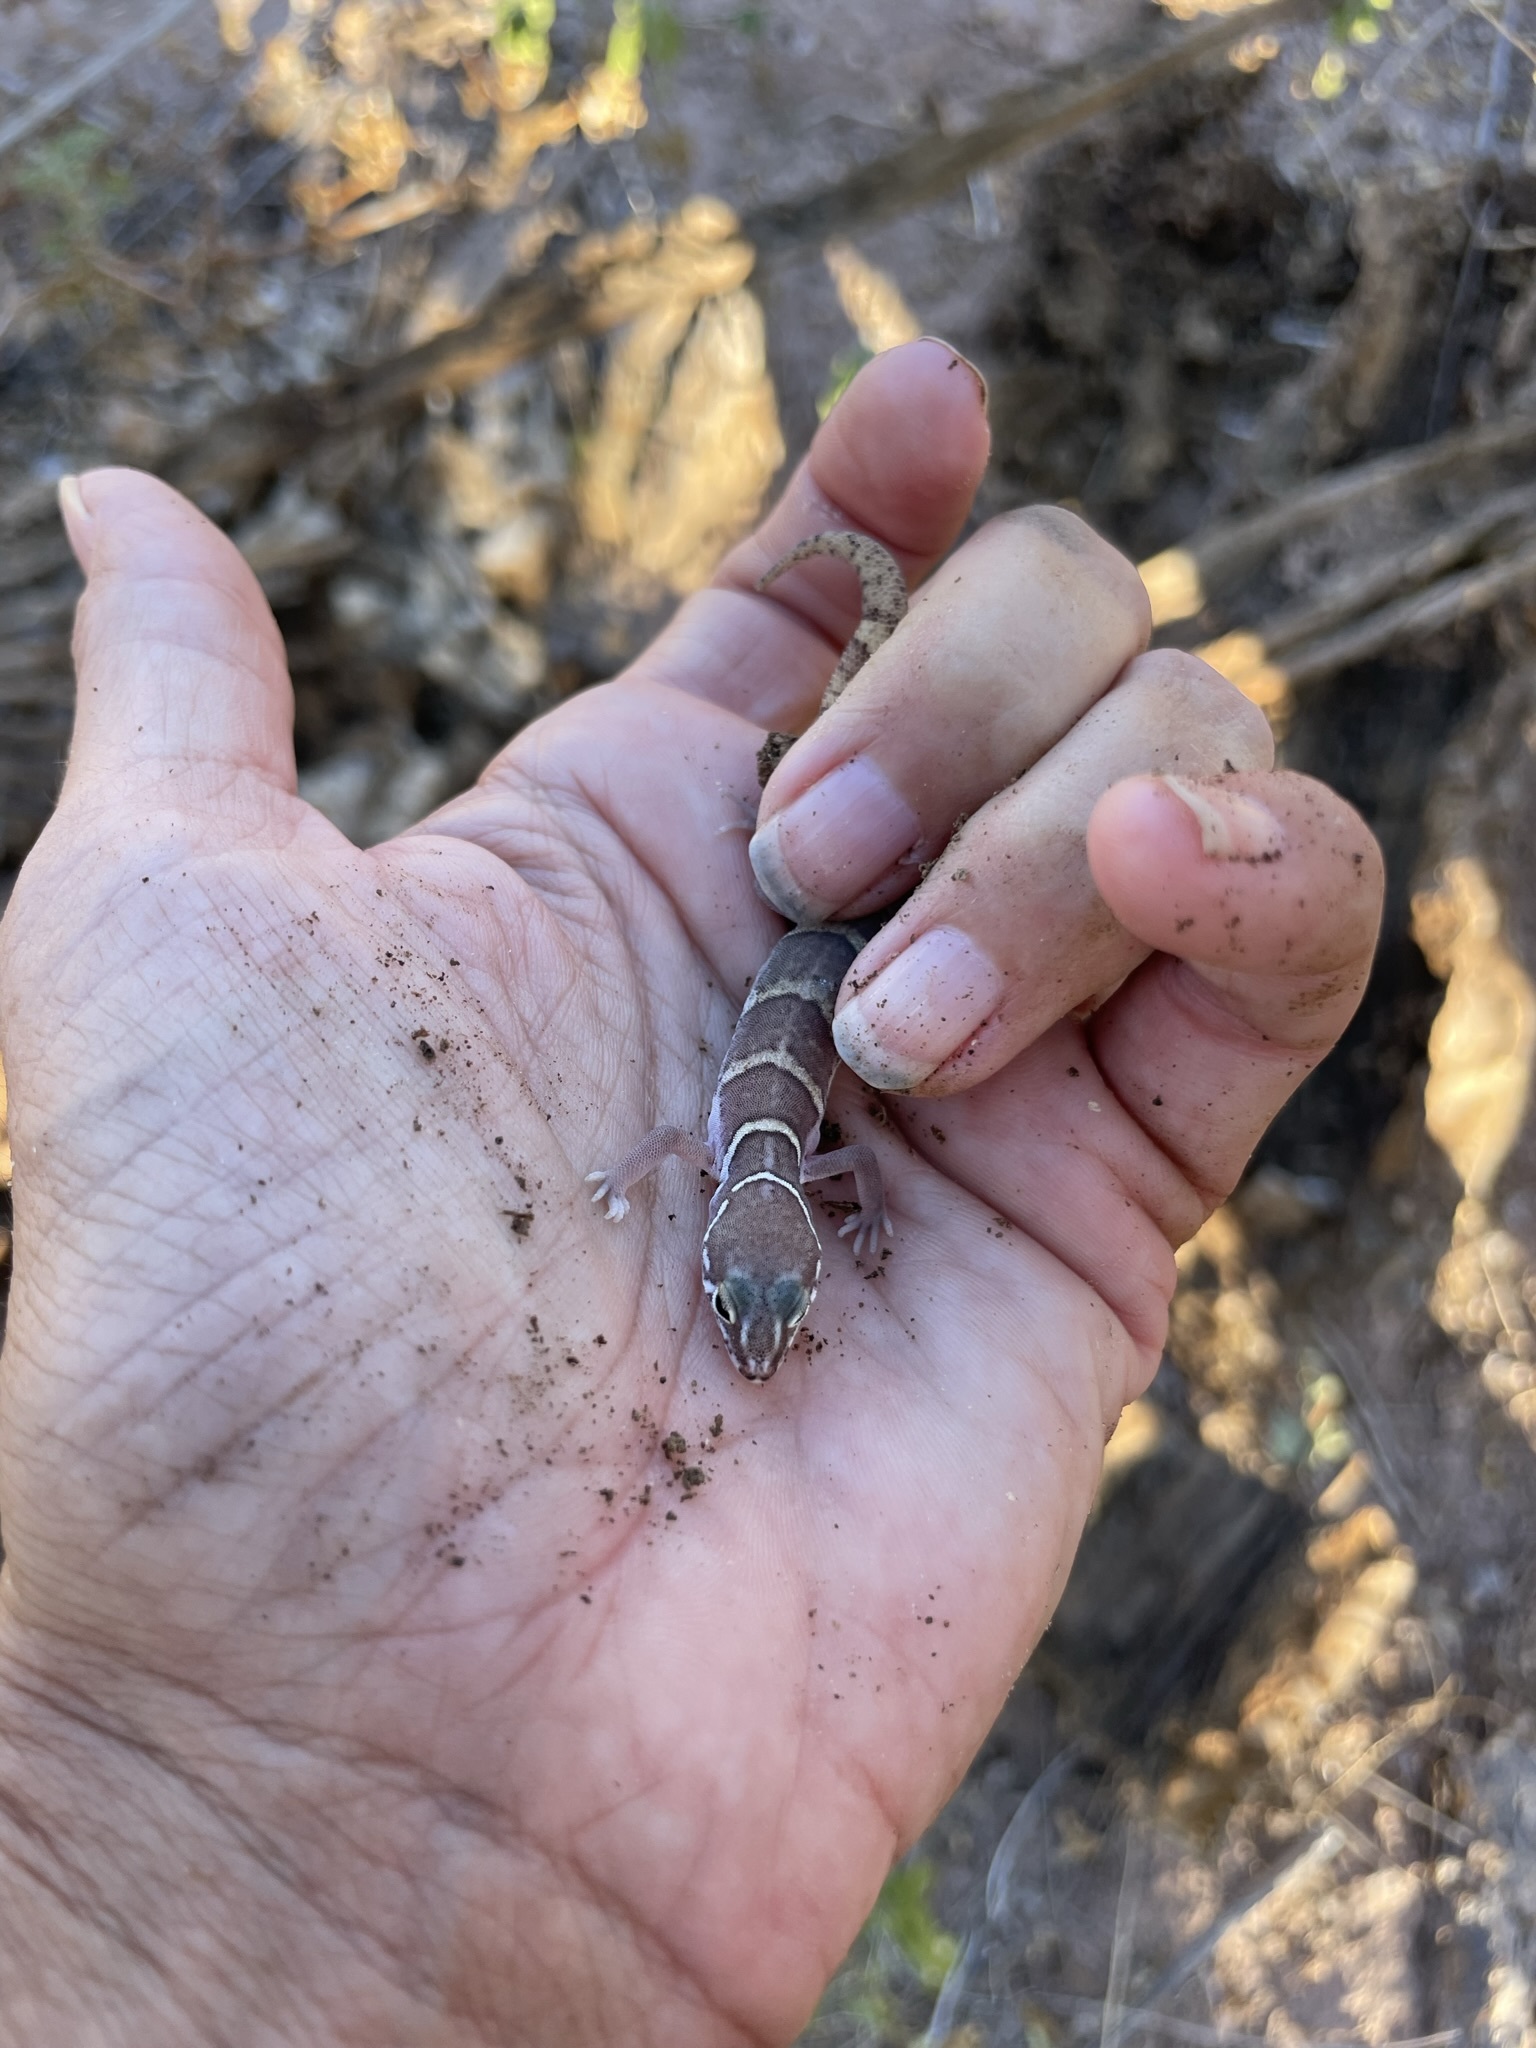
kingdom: Animalia
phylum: Chordata
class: Squamata
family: Eublepharidae
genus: Coleonyx
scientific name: Coleonyx variegatus
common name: Western banded gecko
